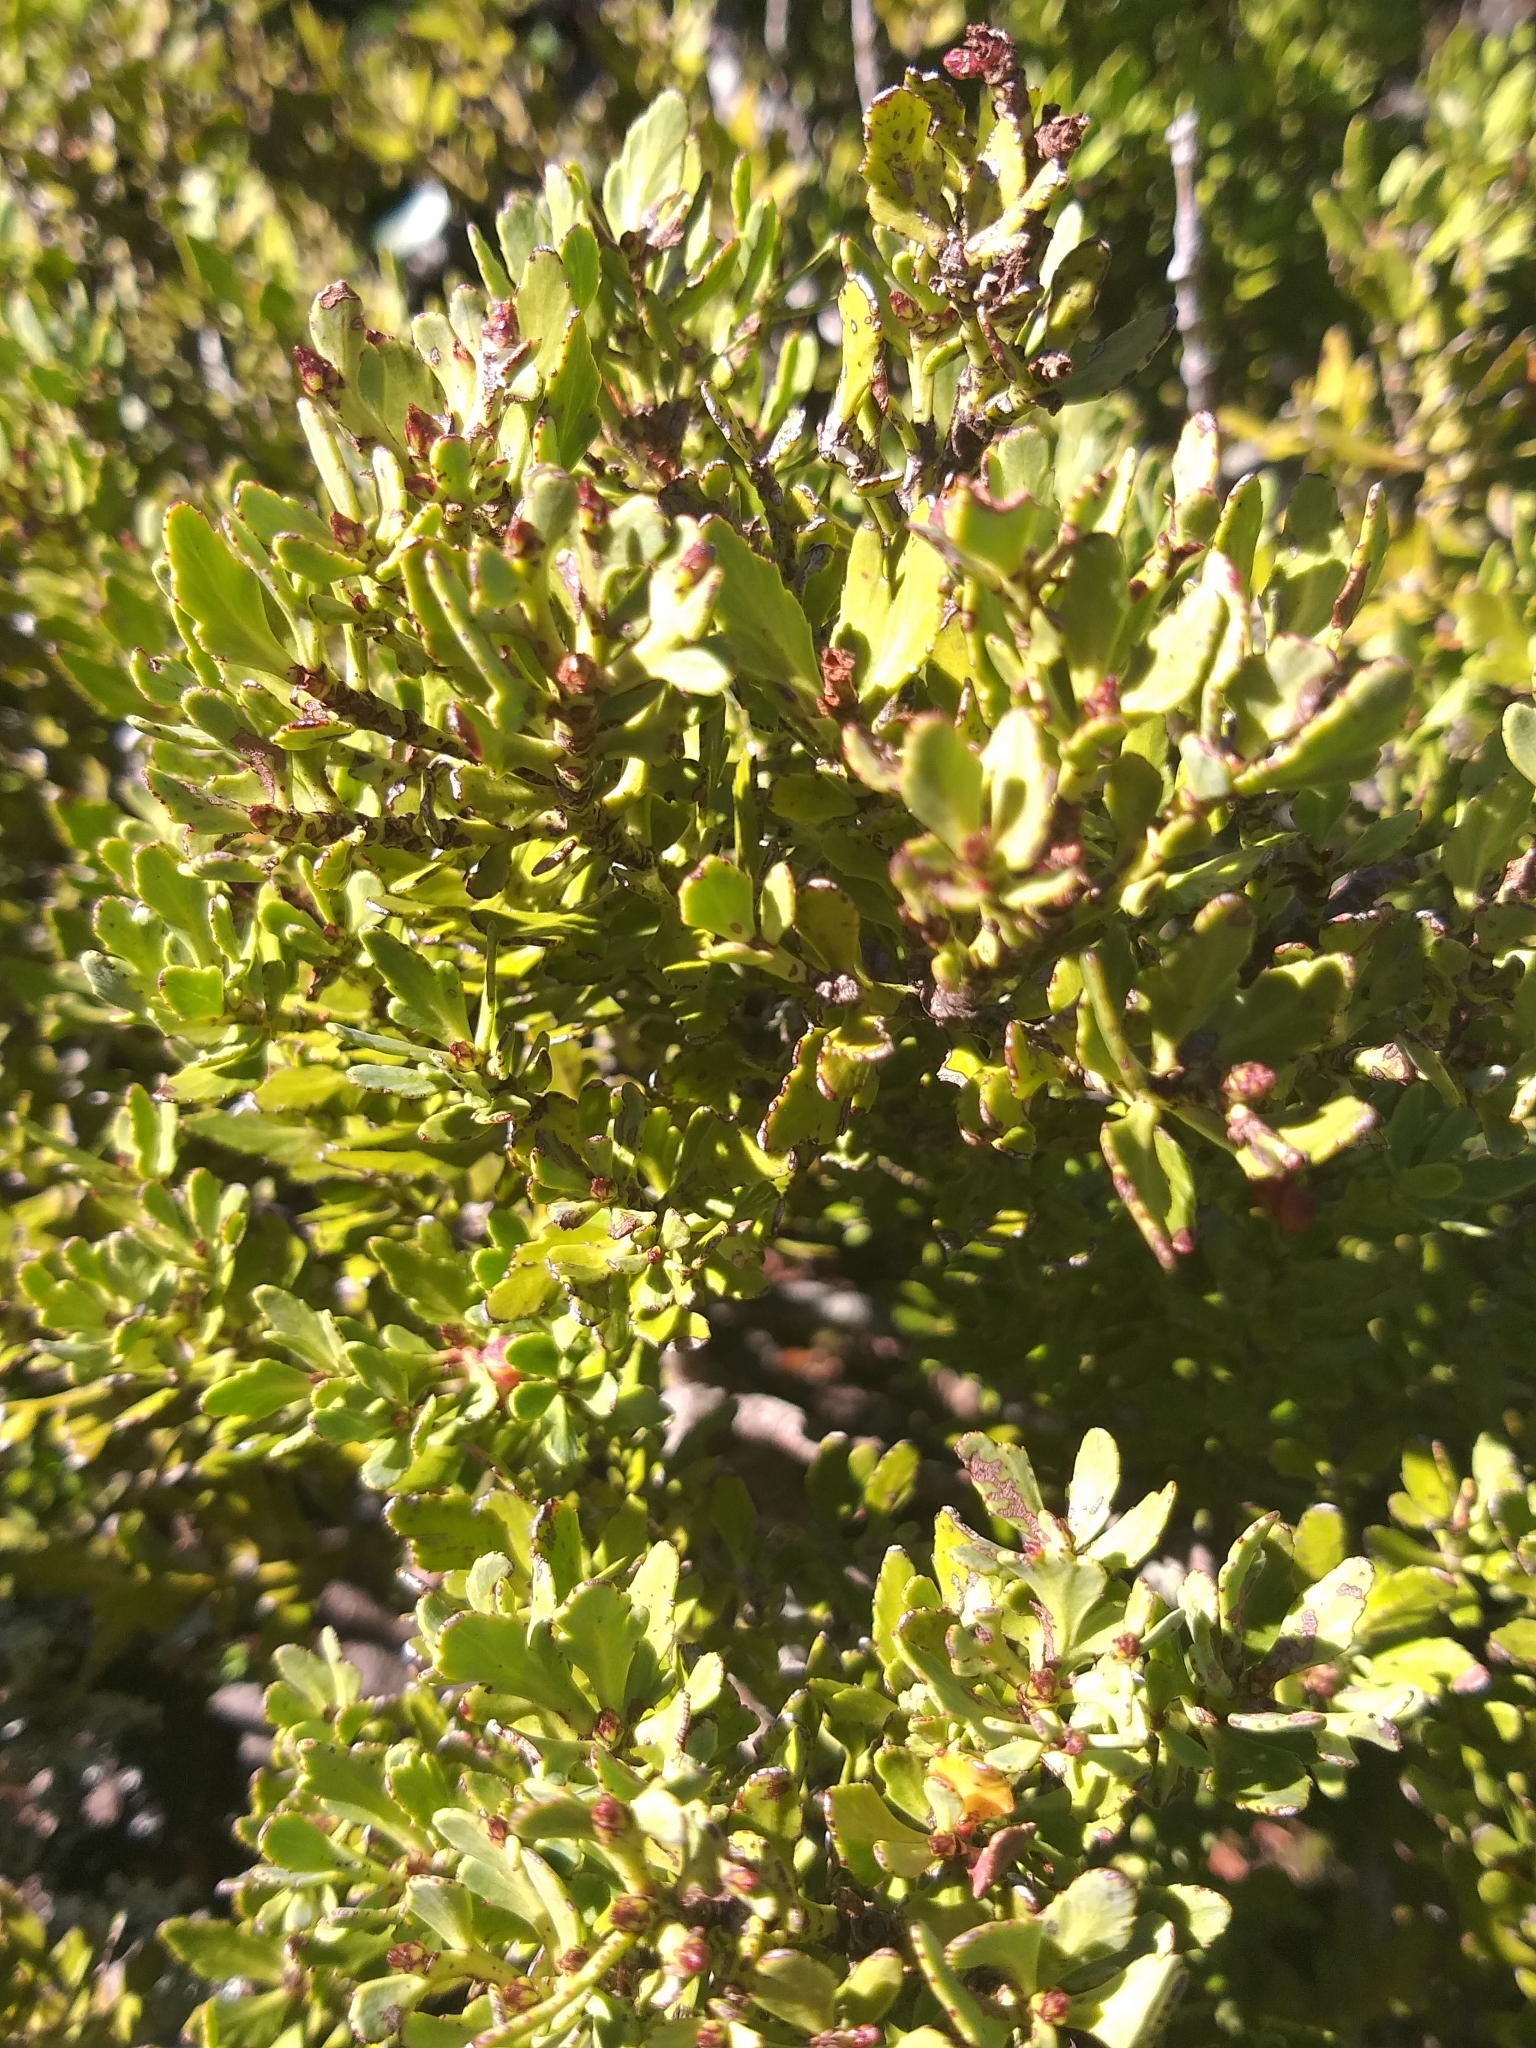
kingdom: Plantae
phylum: Tracheophyta
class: Pinopsida
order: Pinales
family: Phyllocladaceae
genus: Phyllocladus
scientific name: Phyllocladus trichomanoides
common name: Celery pine
